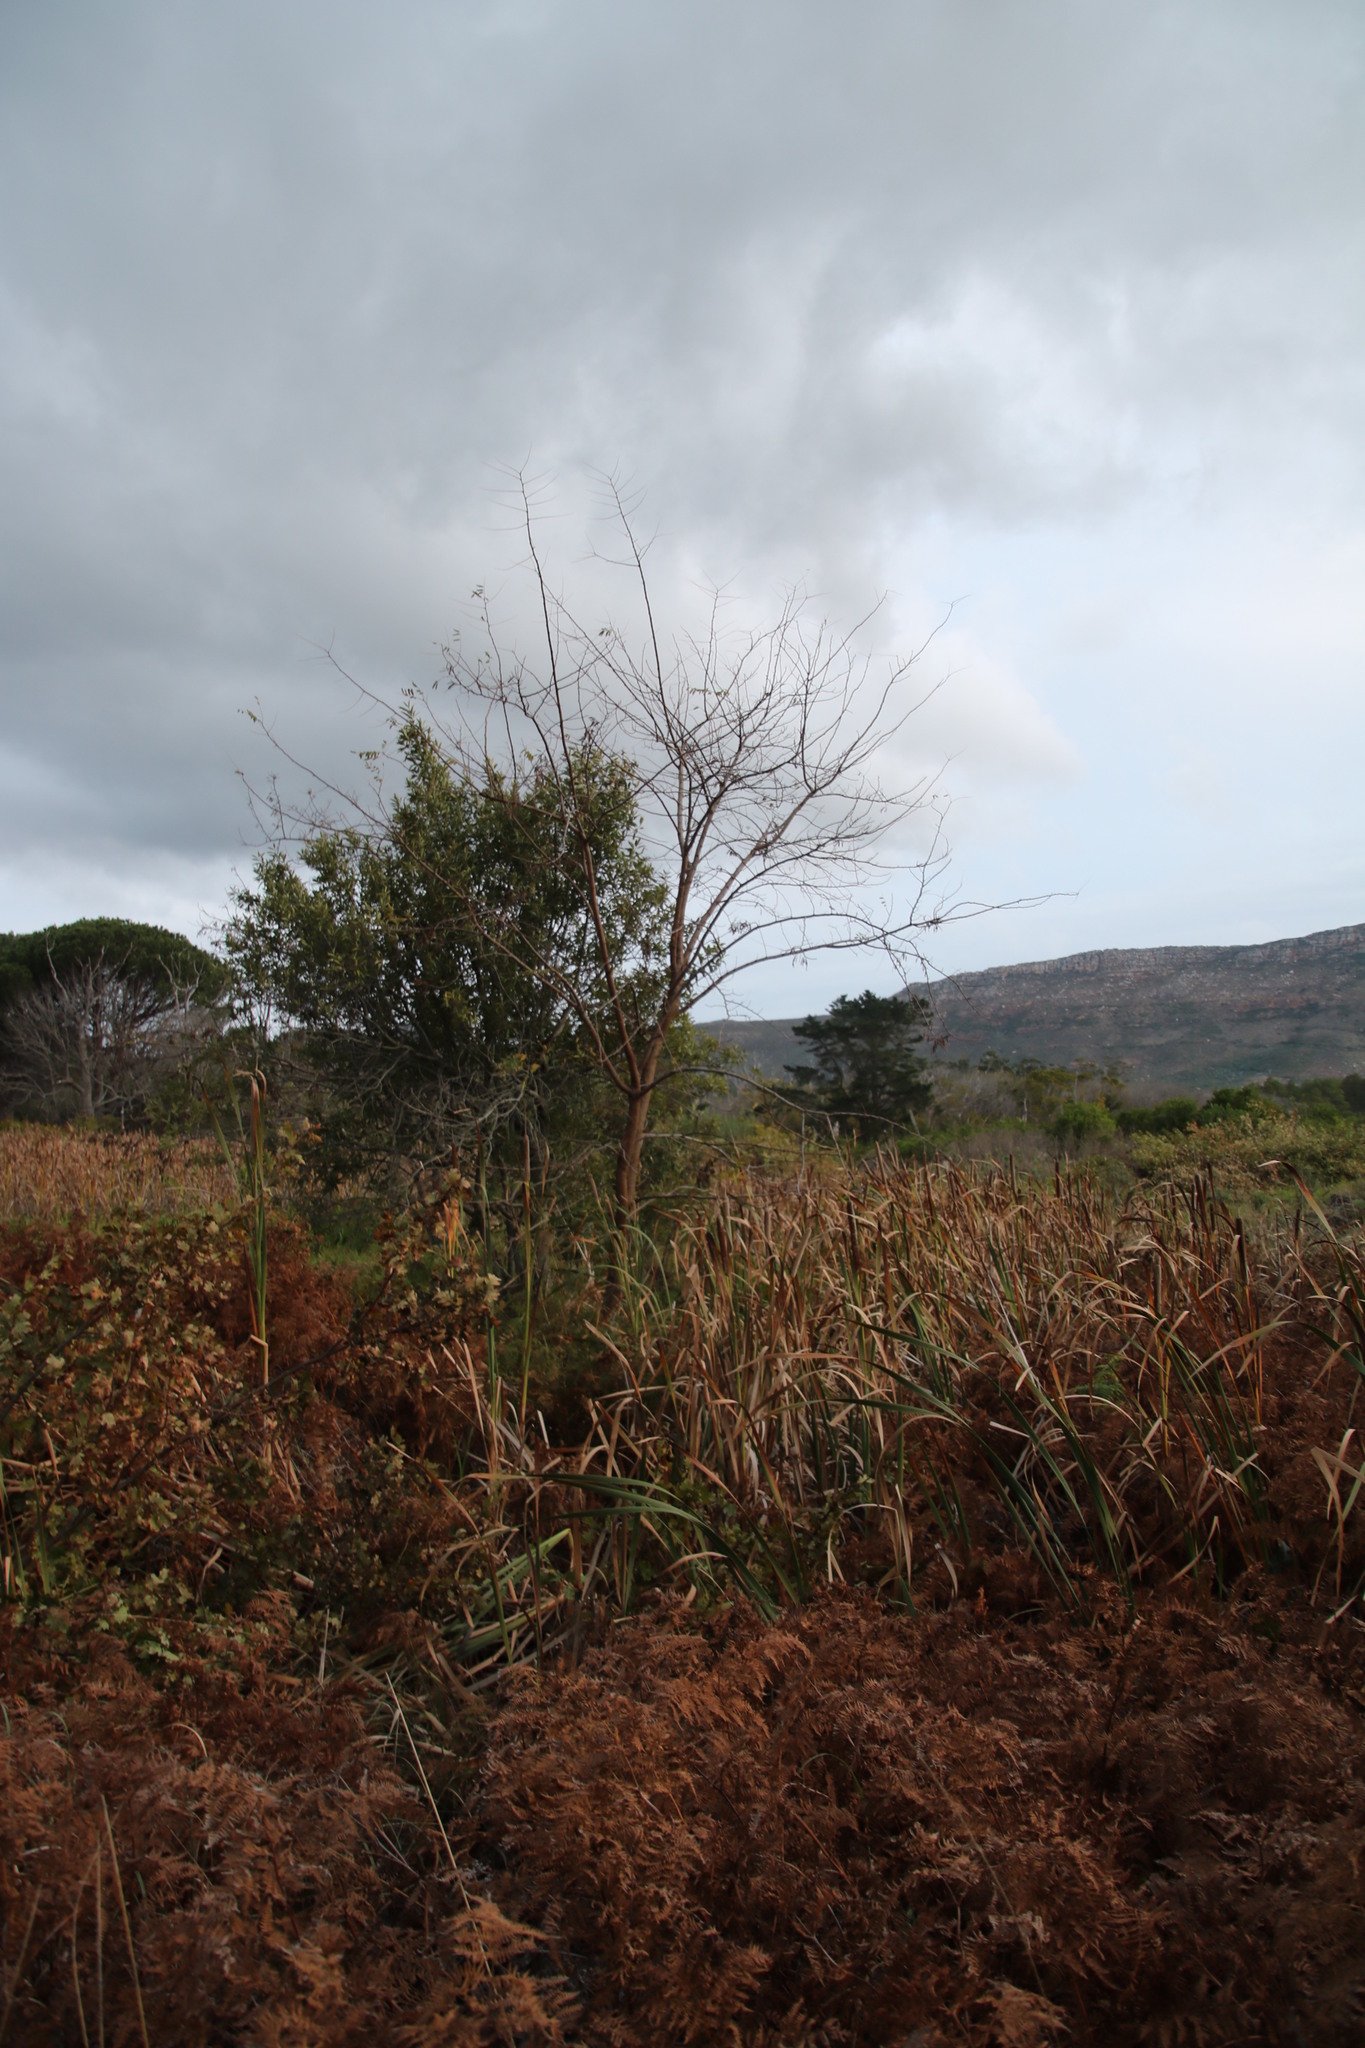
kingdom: Plantae
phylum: Tracheophyta
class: Magnoliopsida
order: Malpighiales
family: Salicaceae
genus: Salix
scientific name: Salix caprea
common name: Goat willow
